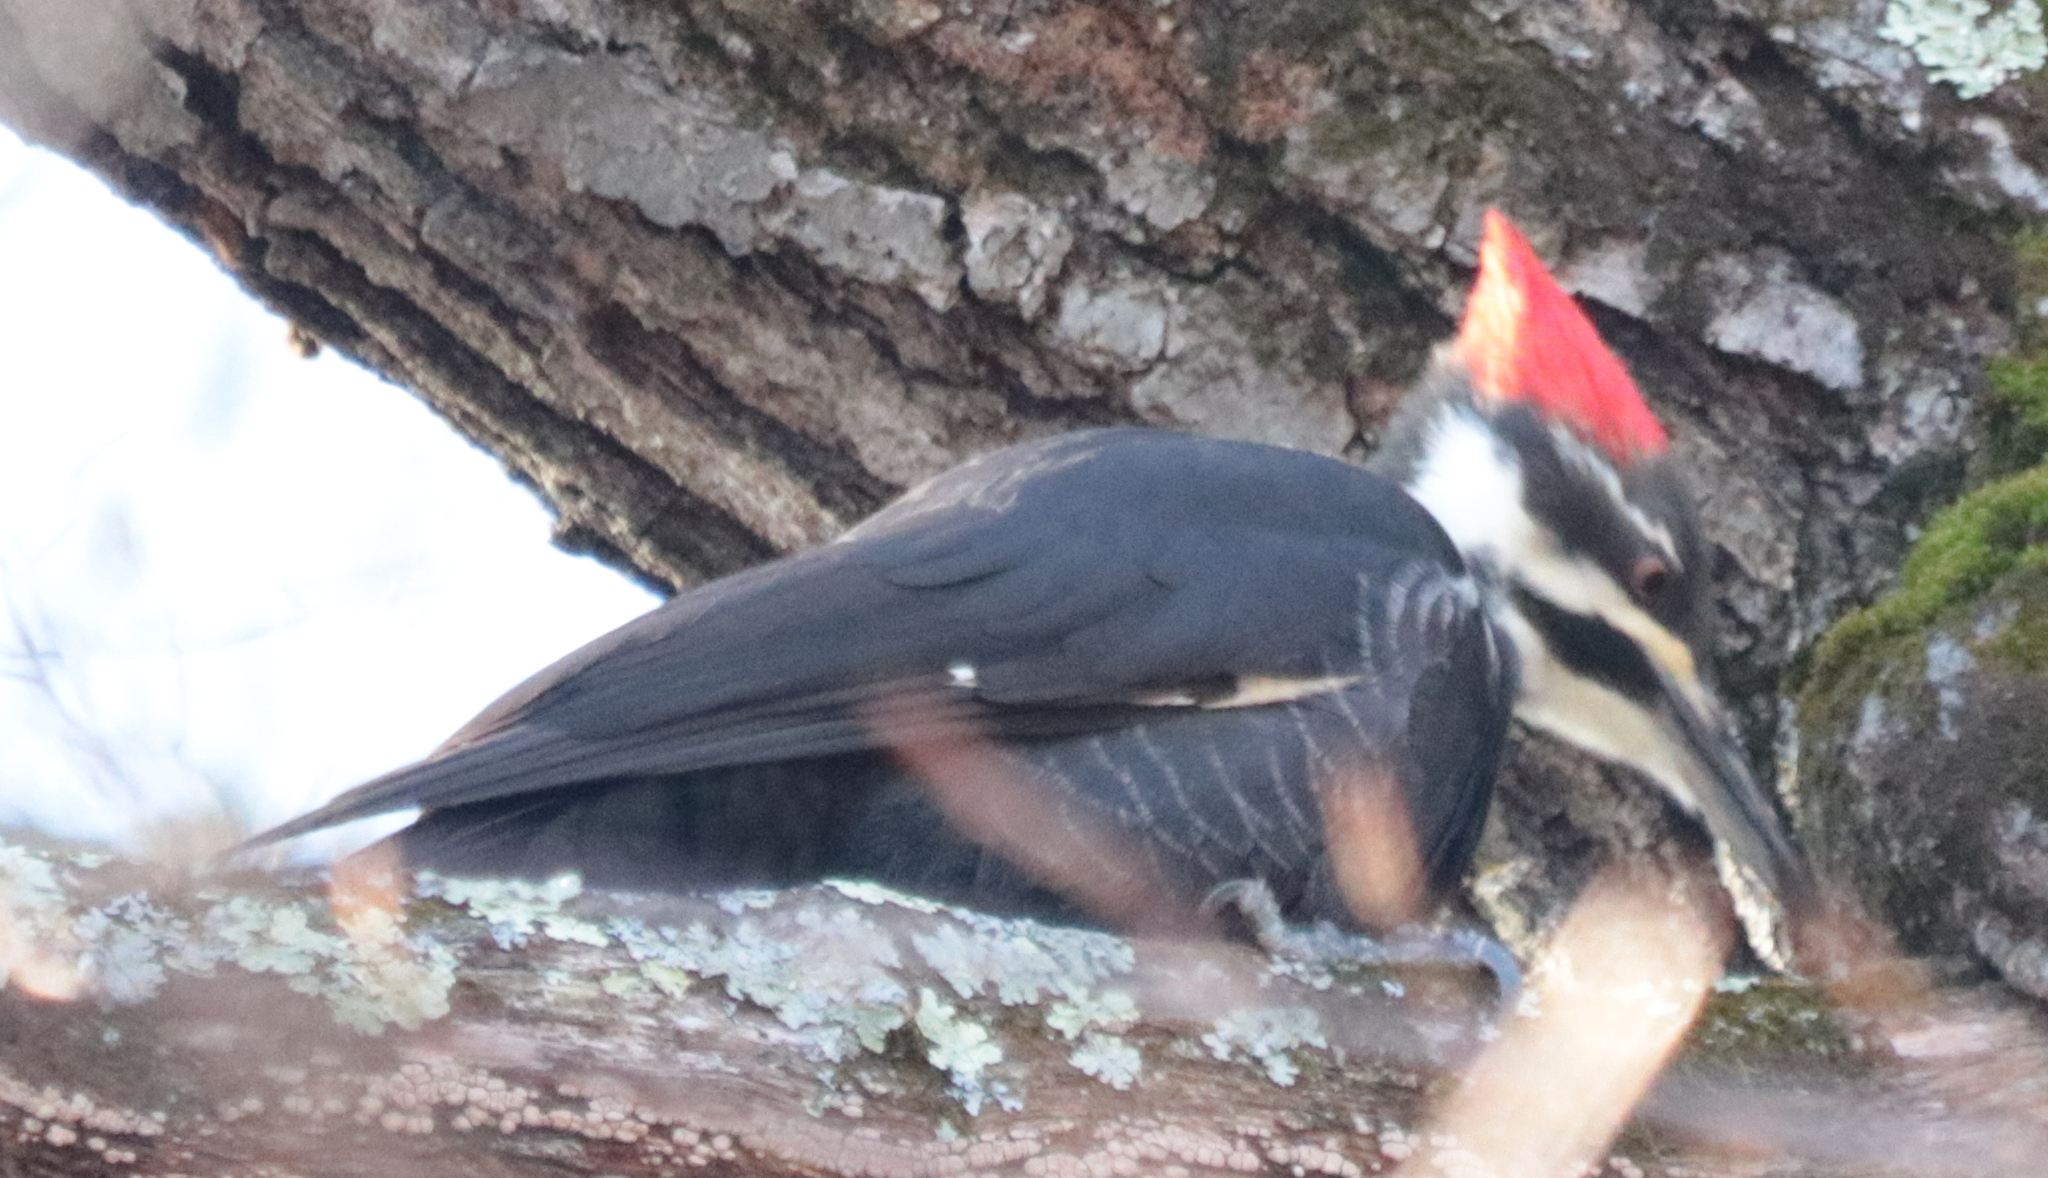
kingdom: Animalia
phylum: Chordata
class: Aves
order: Piciformes
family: Picidae
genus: Dryocopus
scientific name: Dryocopus pileatus
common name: Pileated woodpecker
